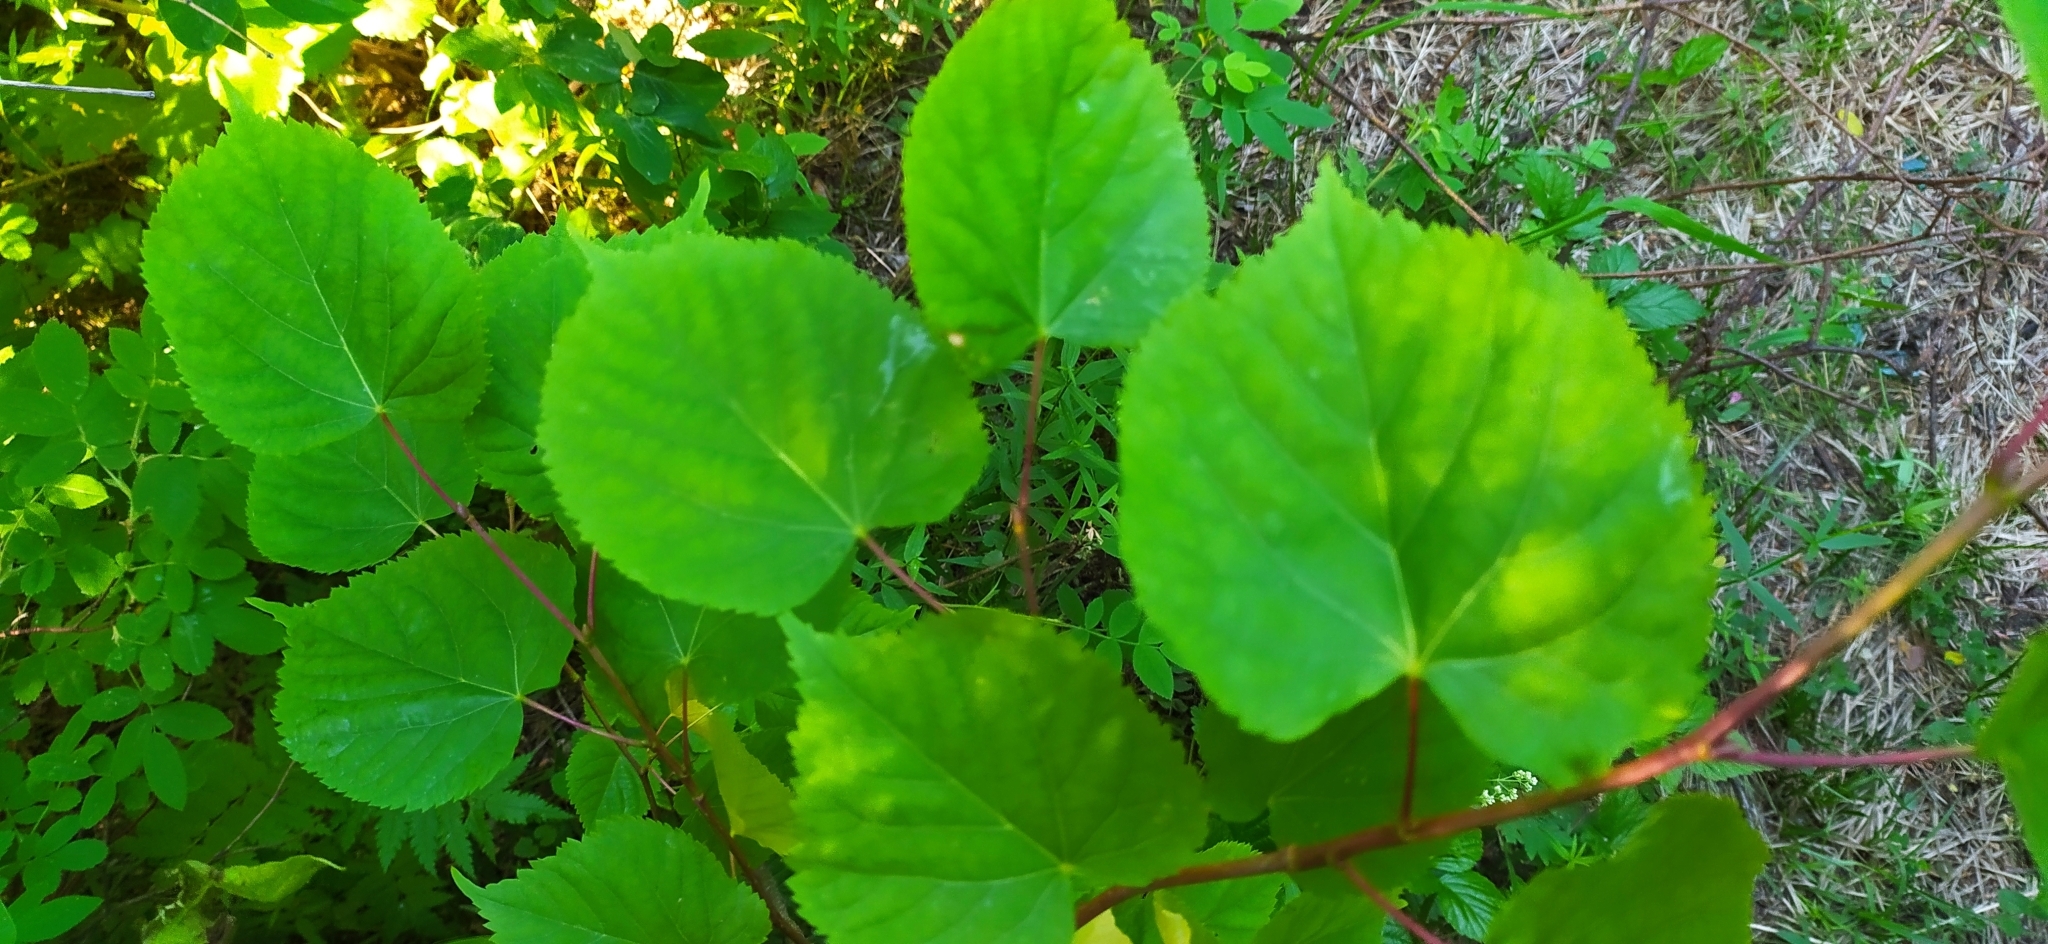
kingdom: Plantae
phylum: Tracheophyta
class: Magnoliopsida
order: Malvales
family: Malvaceae
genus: Tilia
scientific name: Tilia cordata
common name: Small-leaved lime
